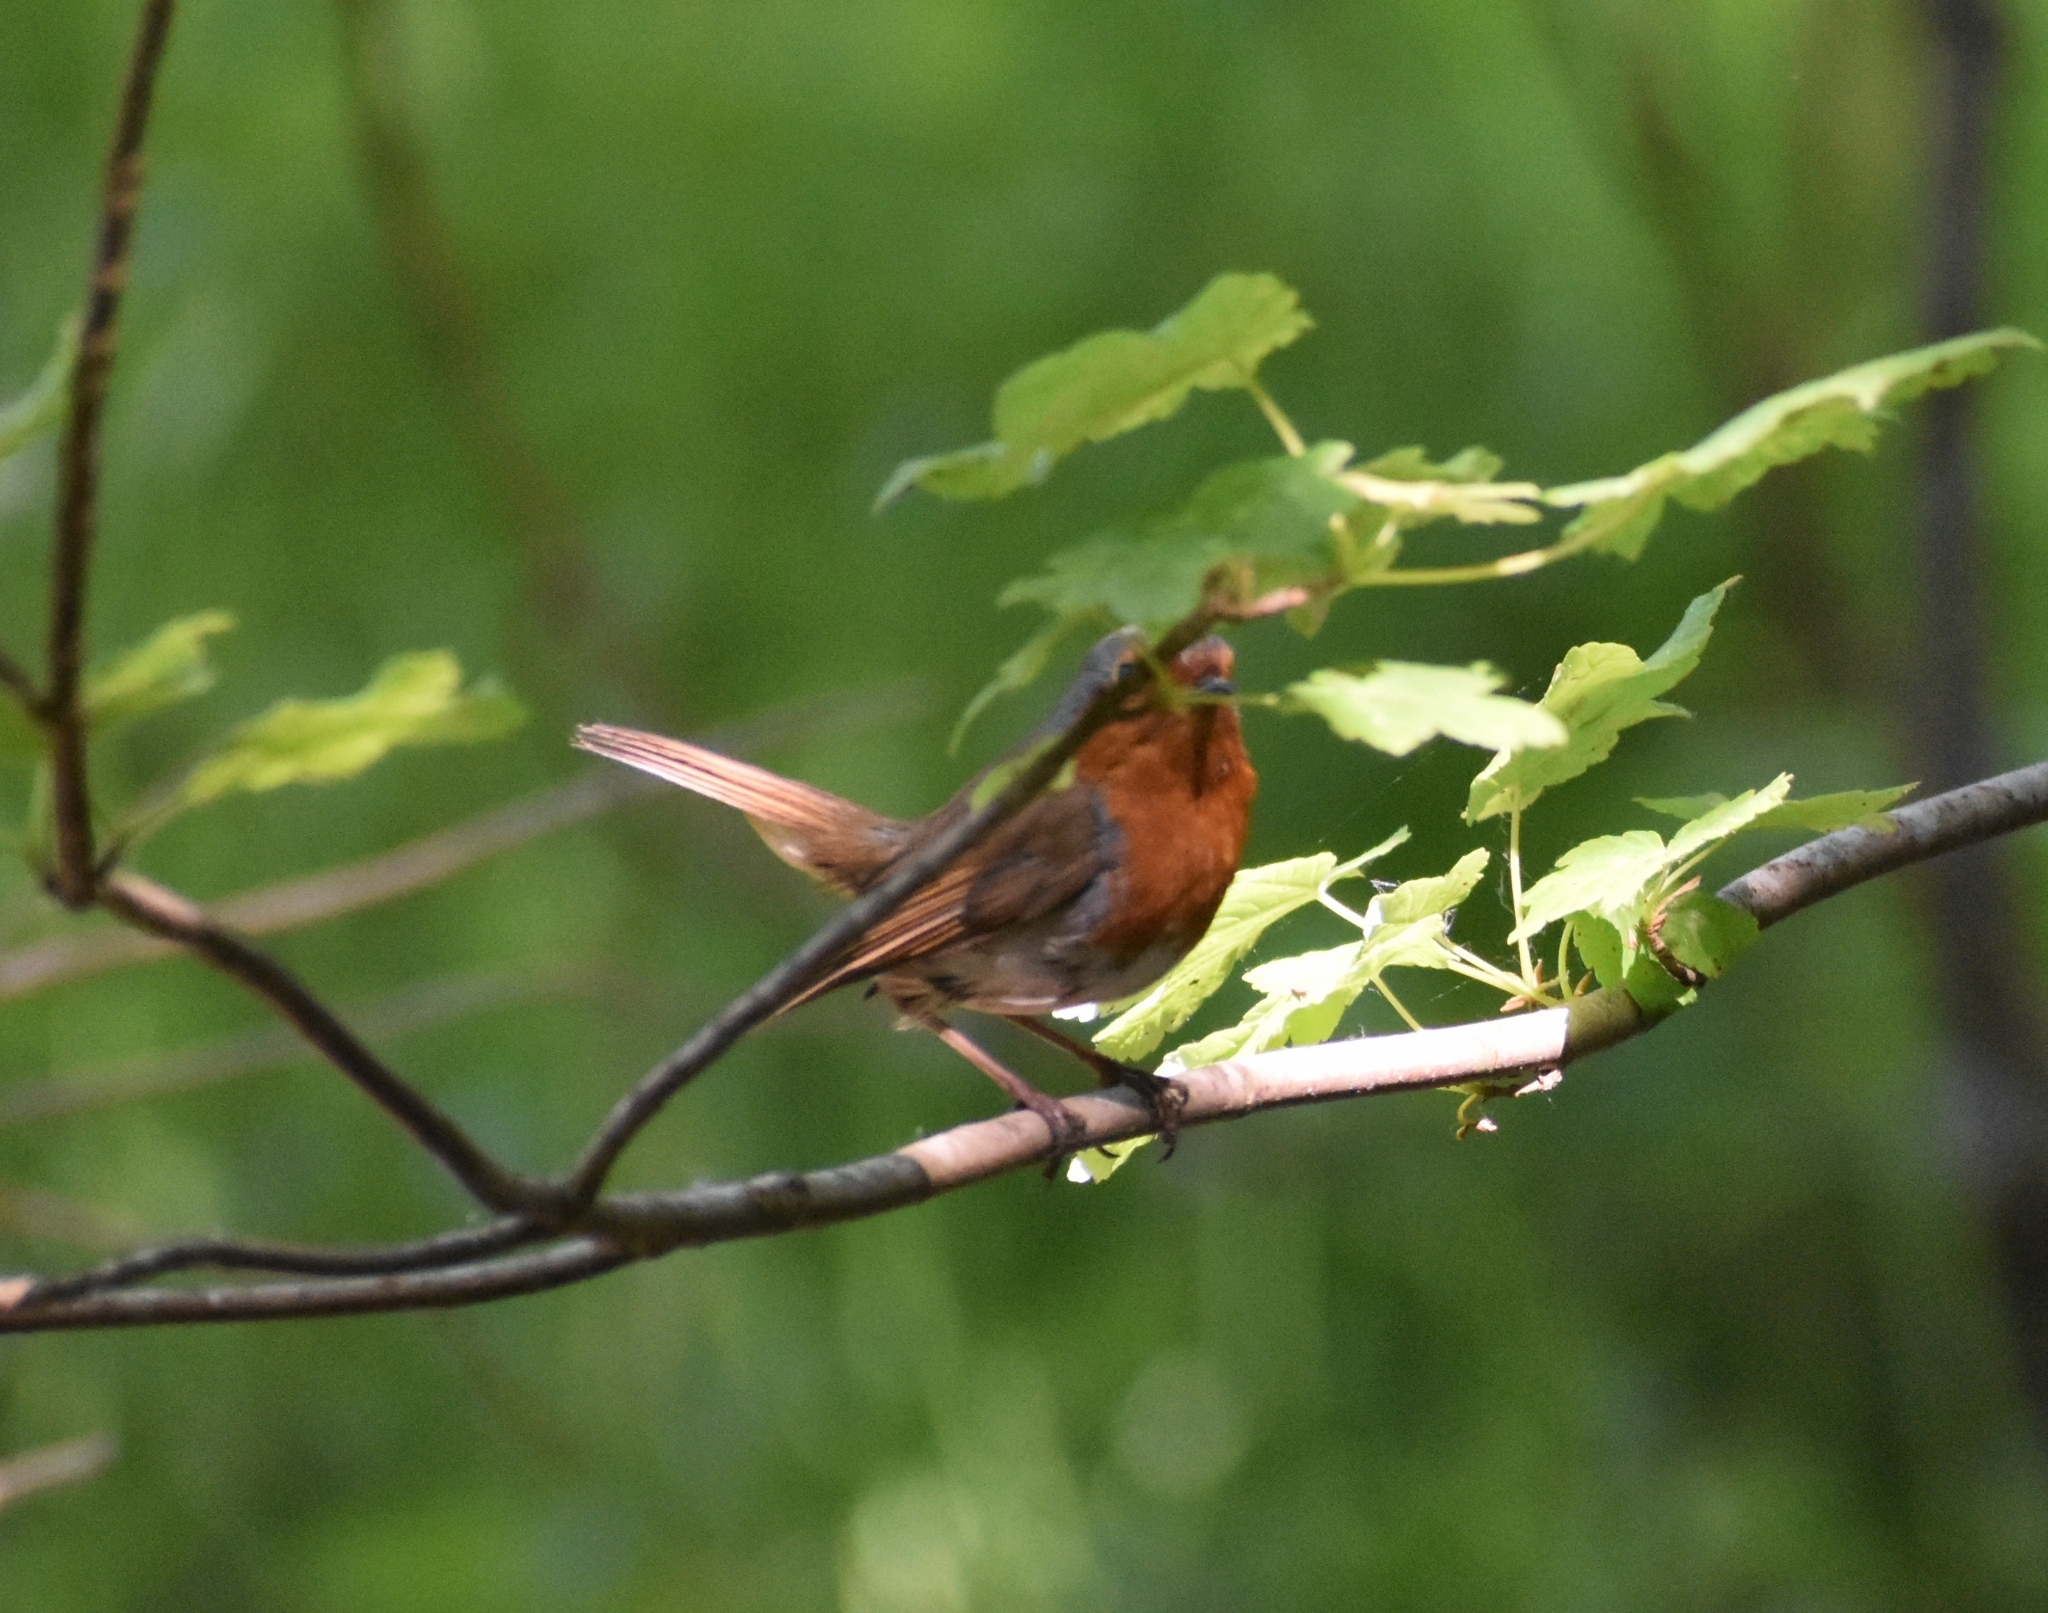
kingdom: Animalia
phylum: Chordata
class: Aves
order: Passeriformes
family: Muscicapidae
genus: Erithacus
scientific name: Erithacus rubecula
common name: European robin
